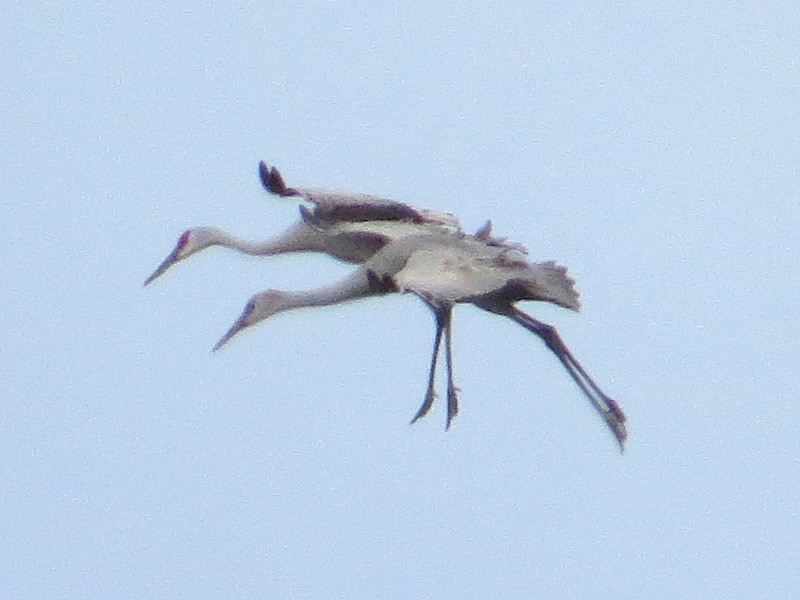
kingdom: Animalia
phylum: Chordata
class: Aves
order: Gruiformes
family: Gruidae
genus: Grus
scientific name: Grus canadensis
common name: Sandhill crane
